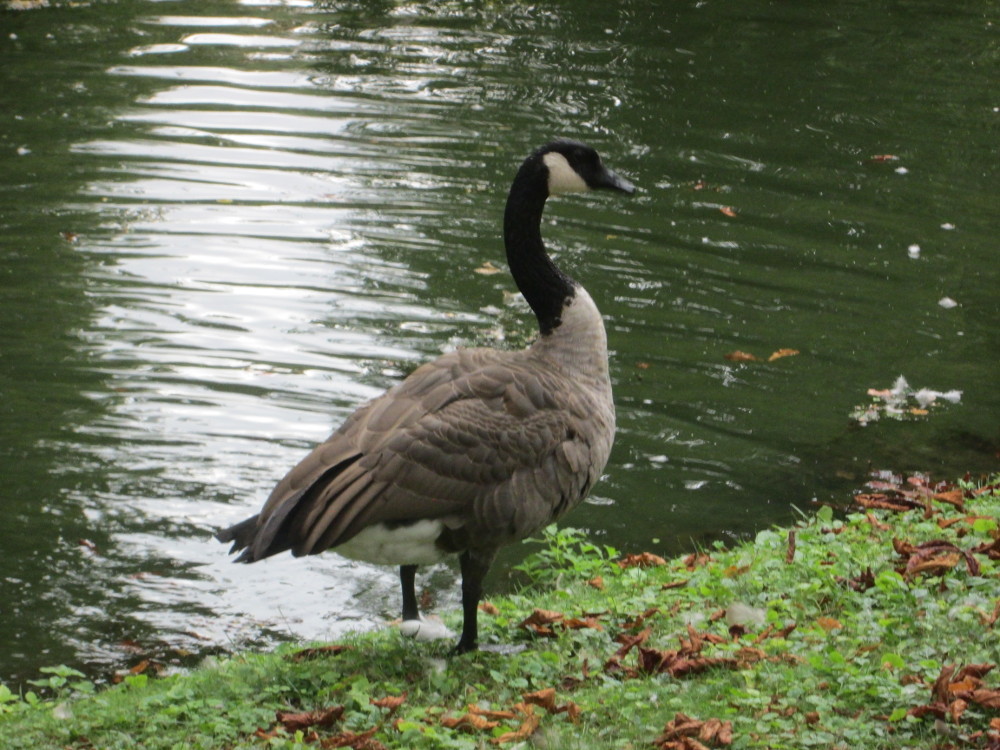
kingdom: Animalia
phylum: Chordata
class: Aves
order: Anseriformes
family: Anatidae
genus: Branta
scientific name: Branta canadensis
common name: Canada goose
